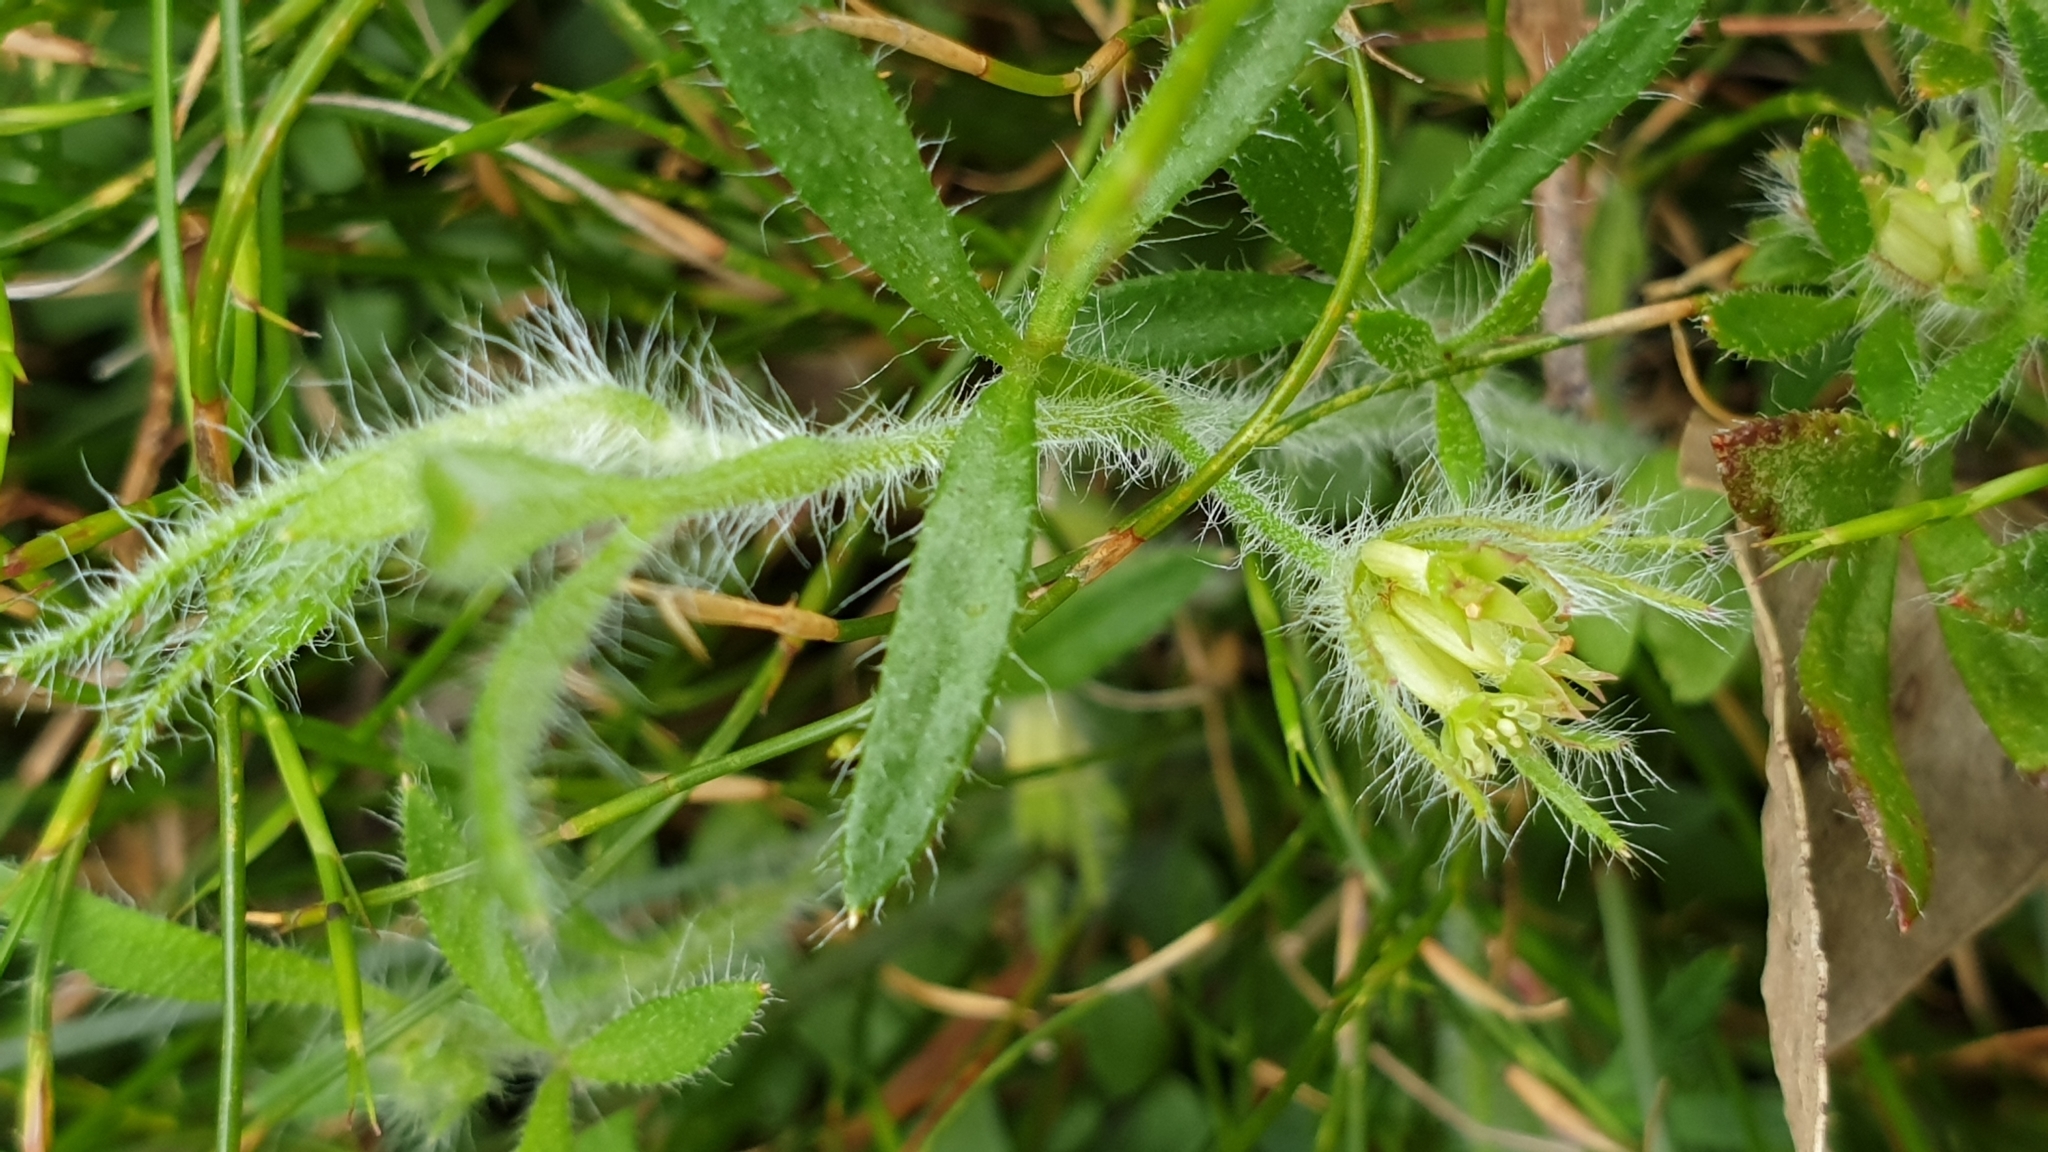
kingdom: Plantae
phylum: Tracheophyta
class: Magnoliopsida
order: Apiales
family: Apiaceae
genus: Xanthosia
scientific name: Xanthosia huegelii
